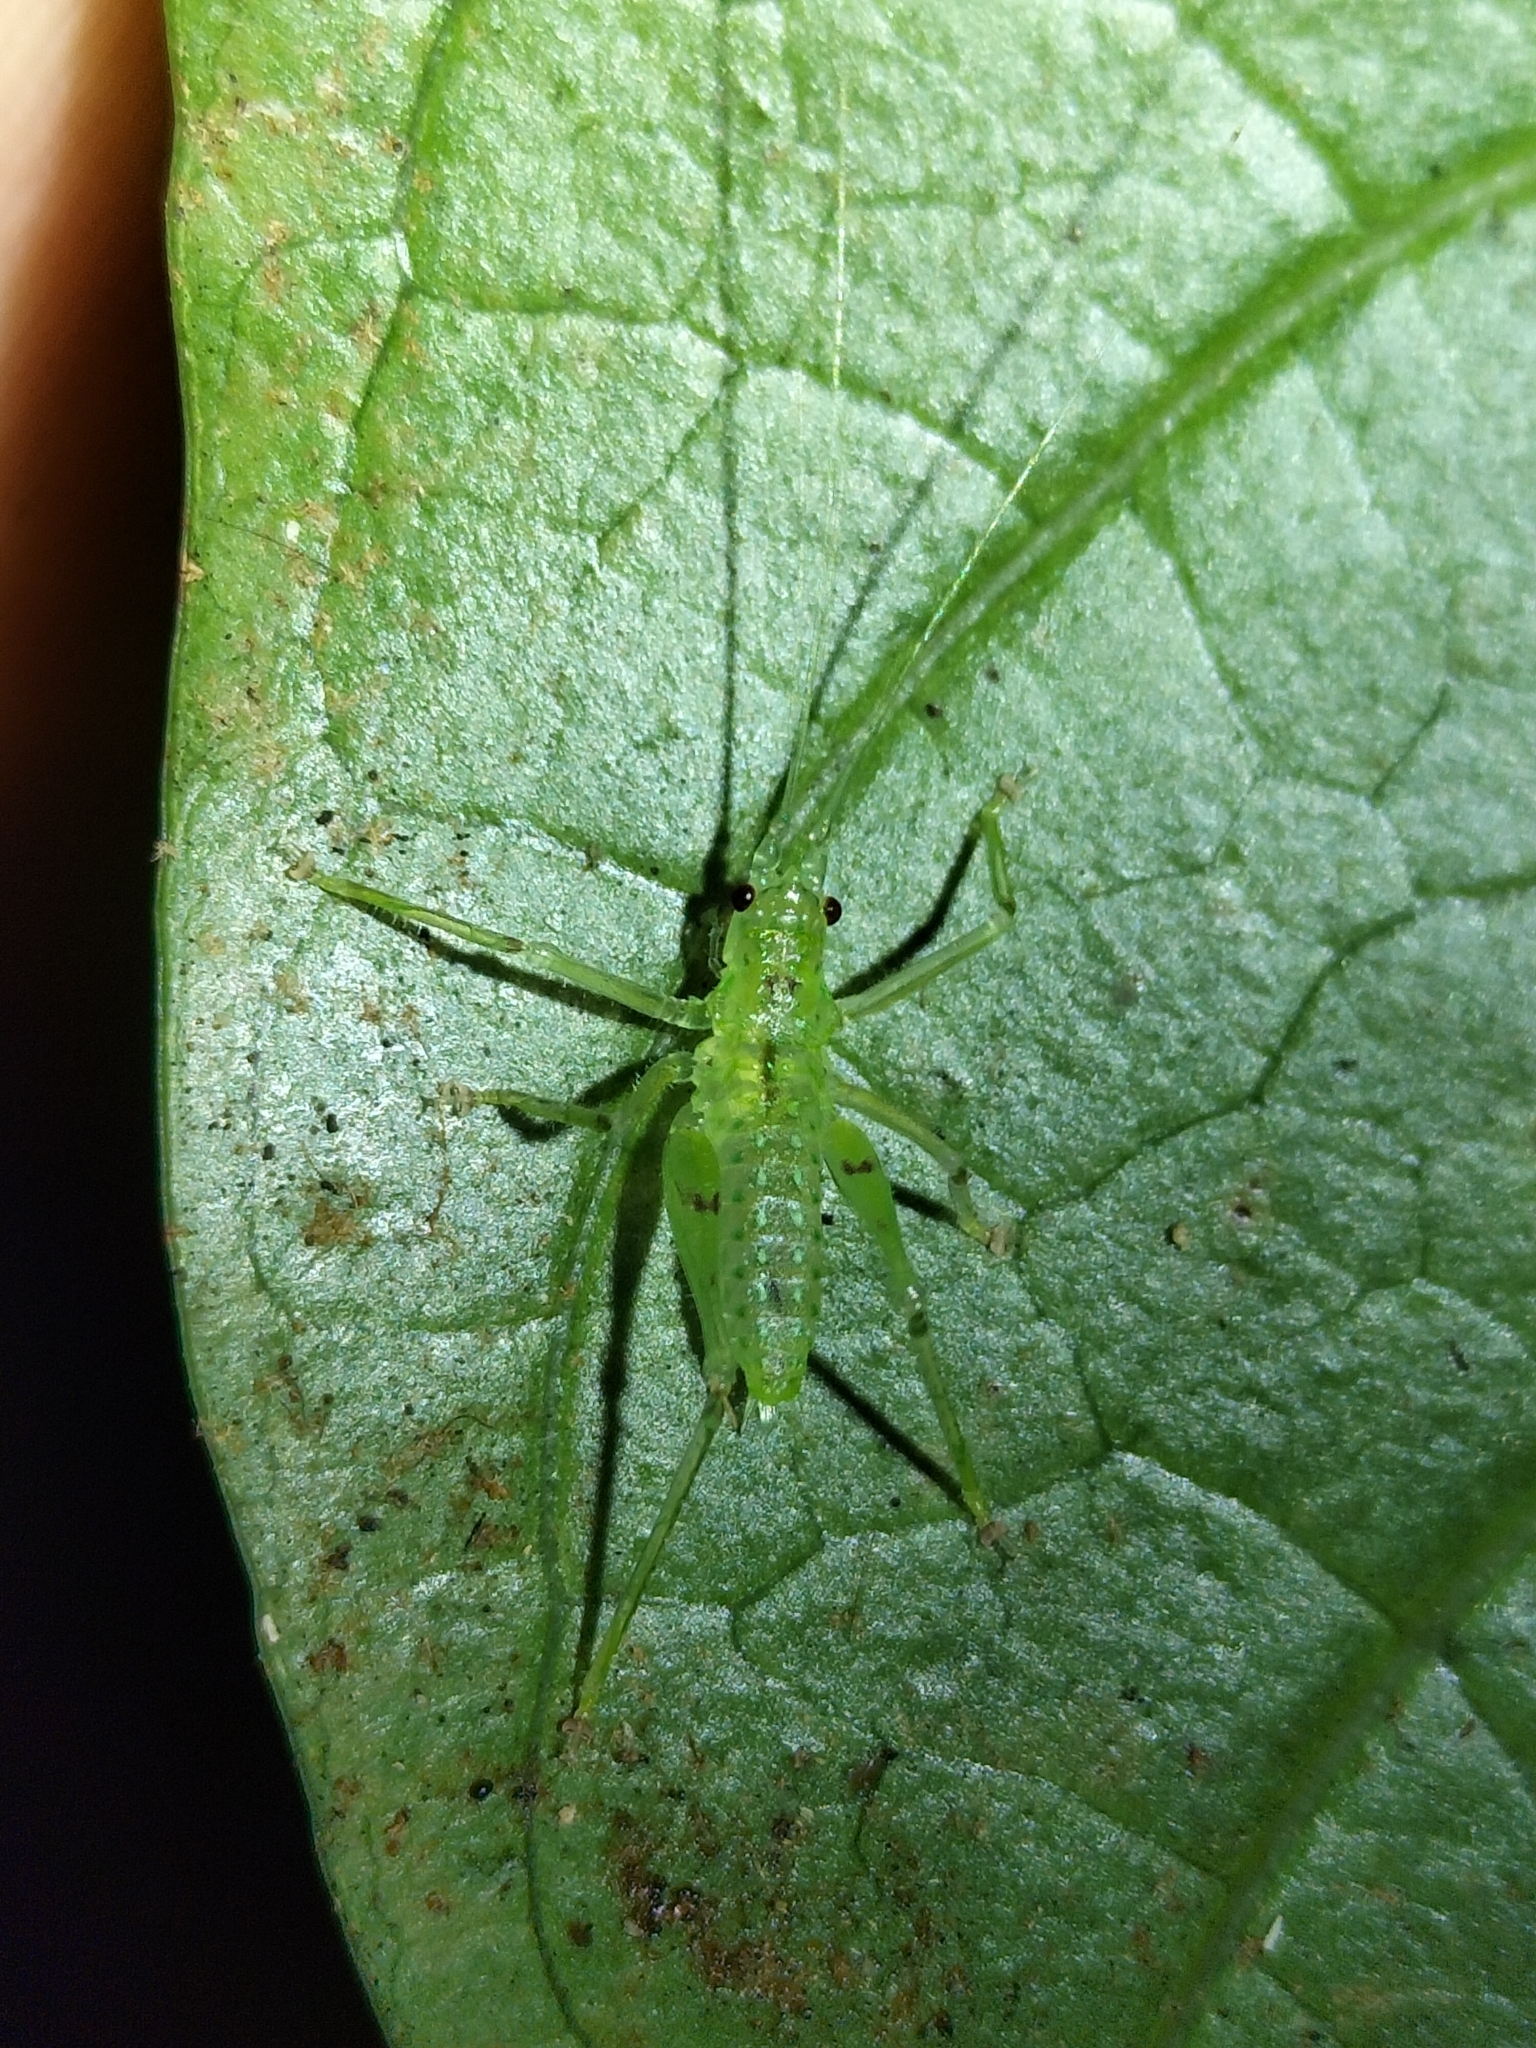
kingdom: Animalia
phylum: Arthropoda
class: Insecta
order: Orthoptera
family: Tettigoniidae
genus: Miniagraecia
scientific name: Miniagraecia milyali
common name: Tiny forest green katydid
